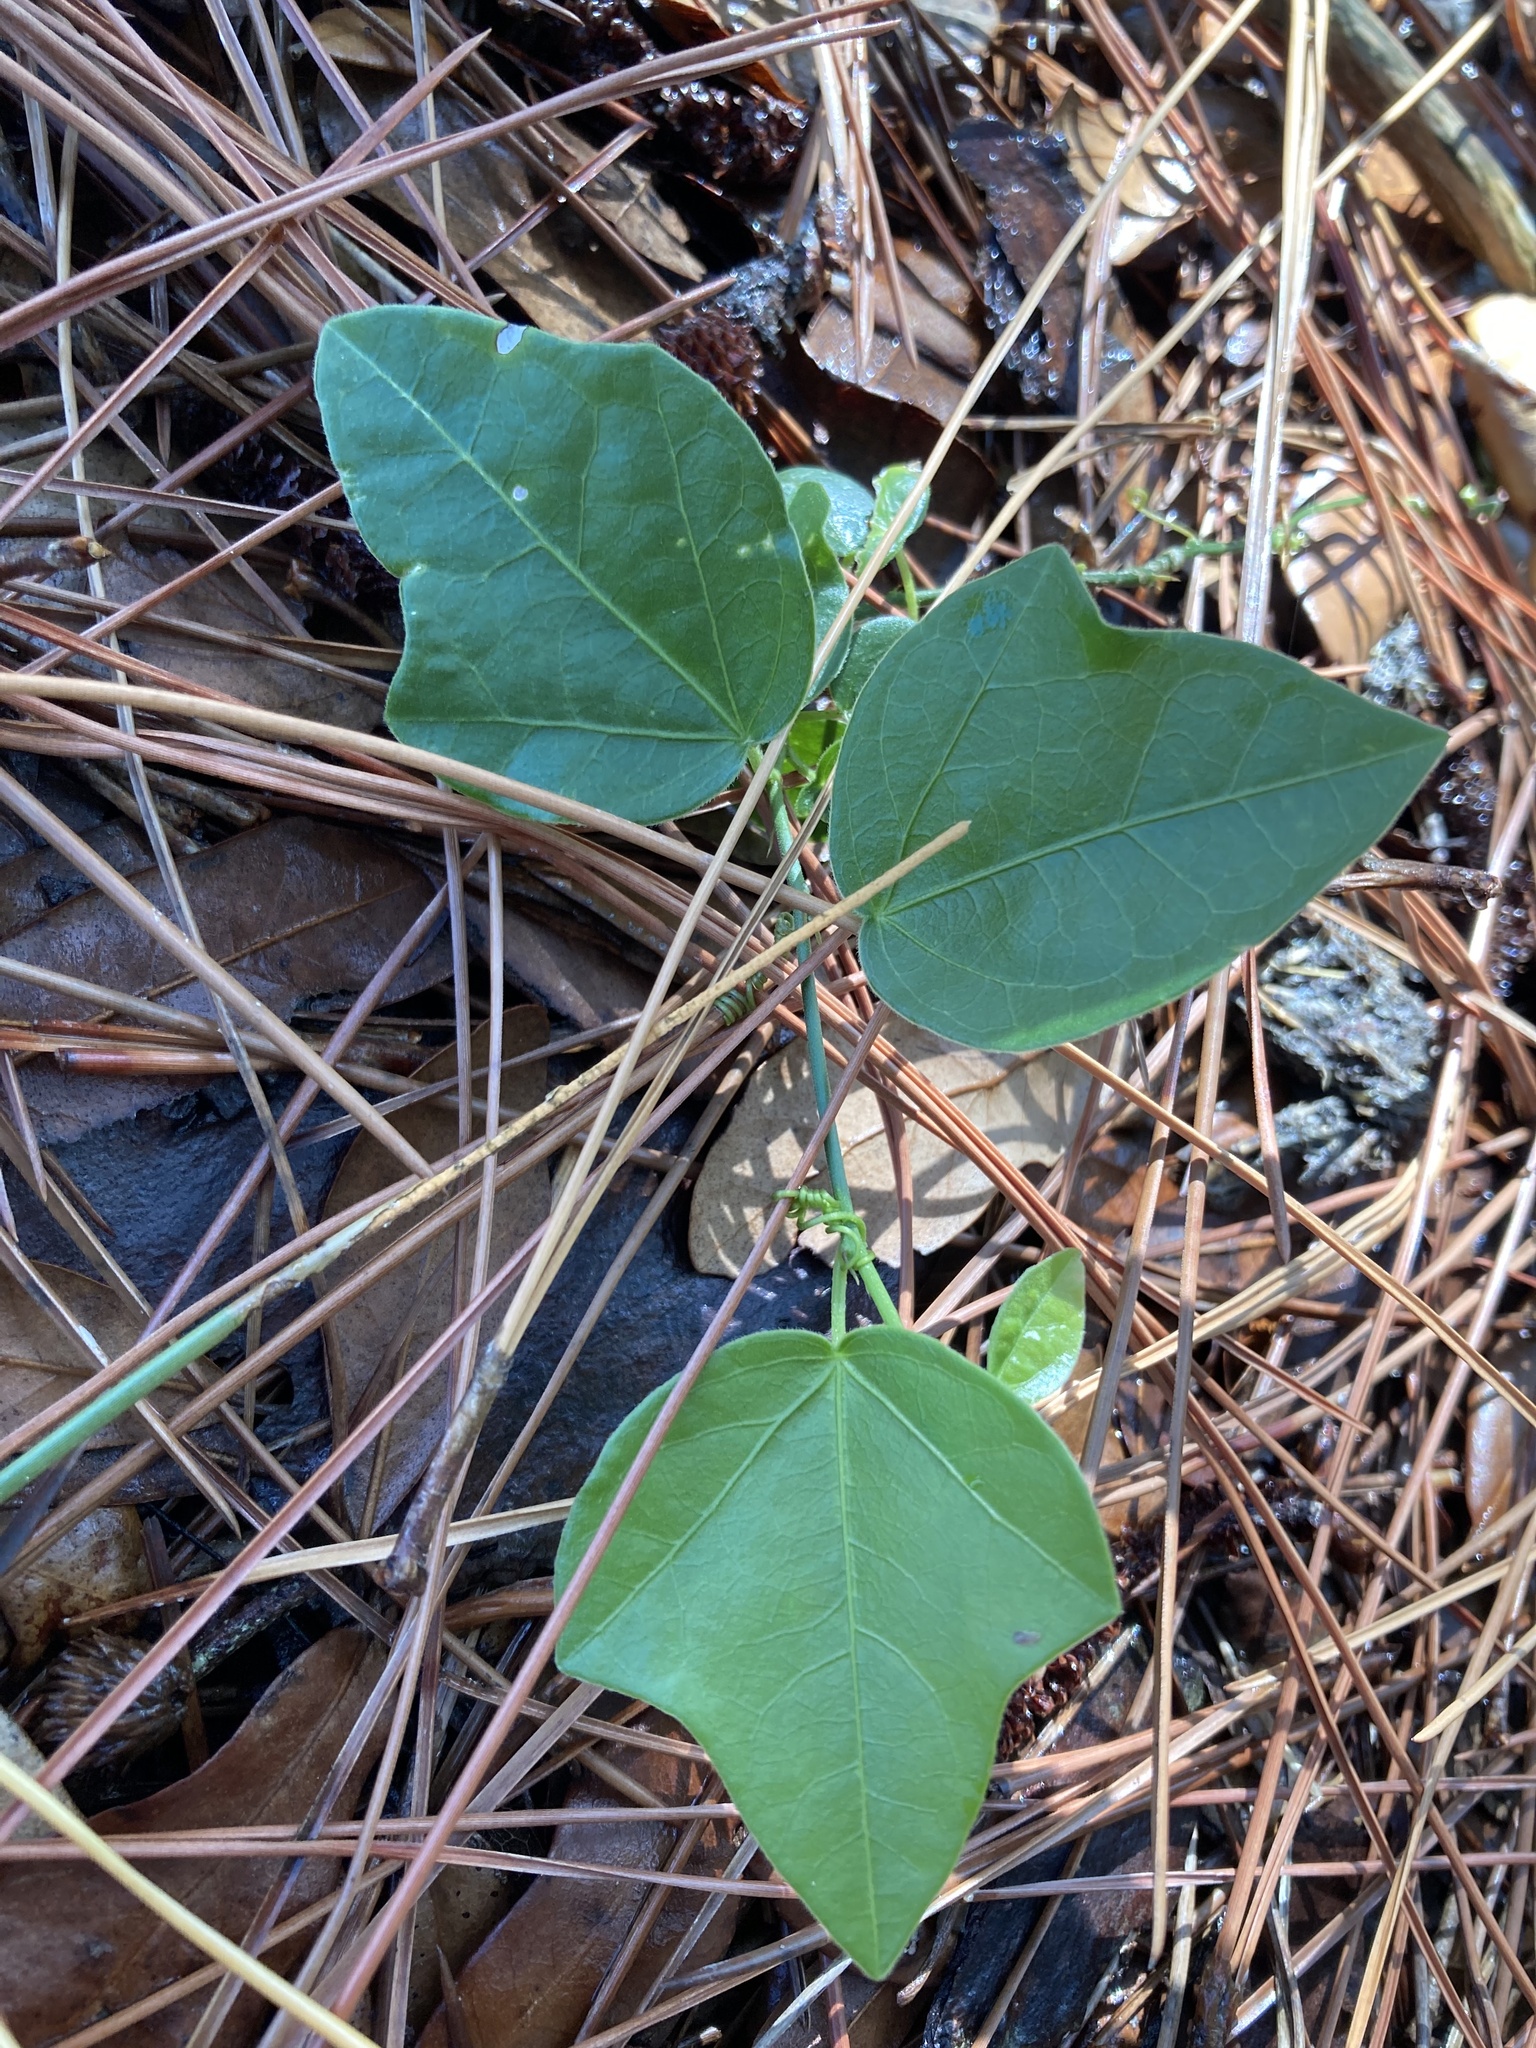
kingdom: Plantae
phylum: Tracheophyta
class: Magnoliopsida
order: Malpighiales
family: Passifloraceae
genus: Passiflora
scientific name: Passiflora pallida
